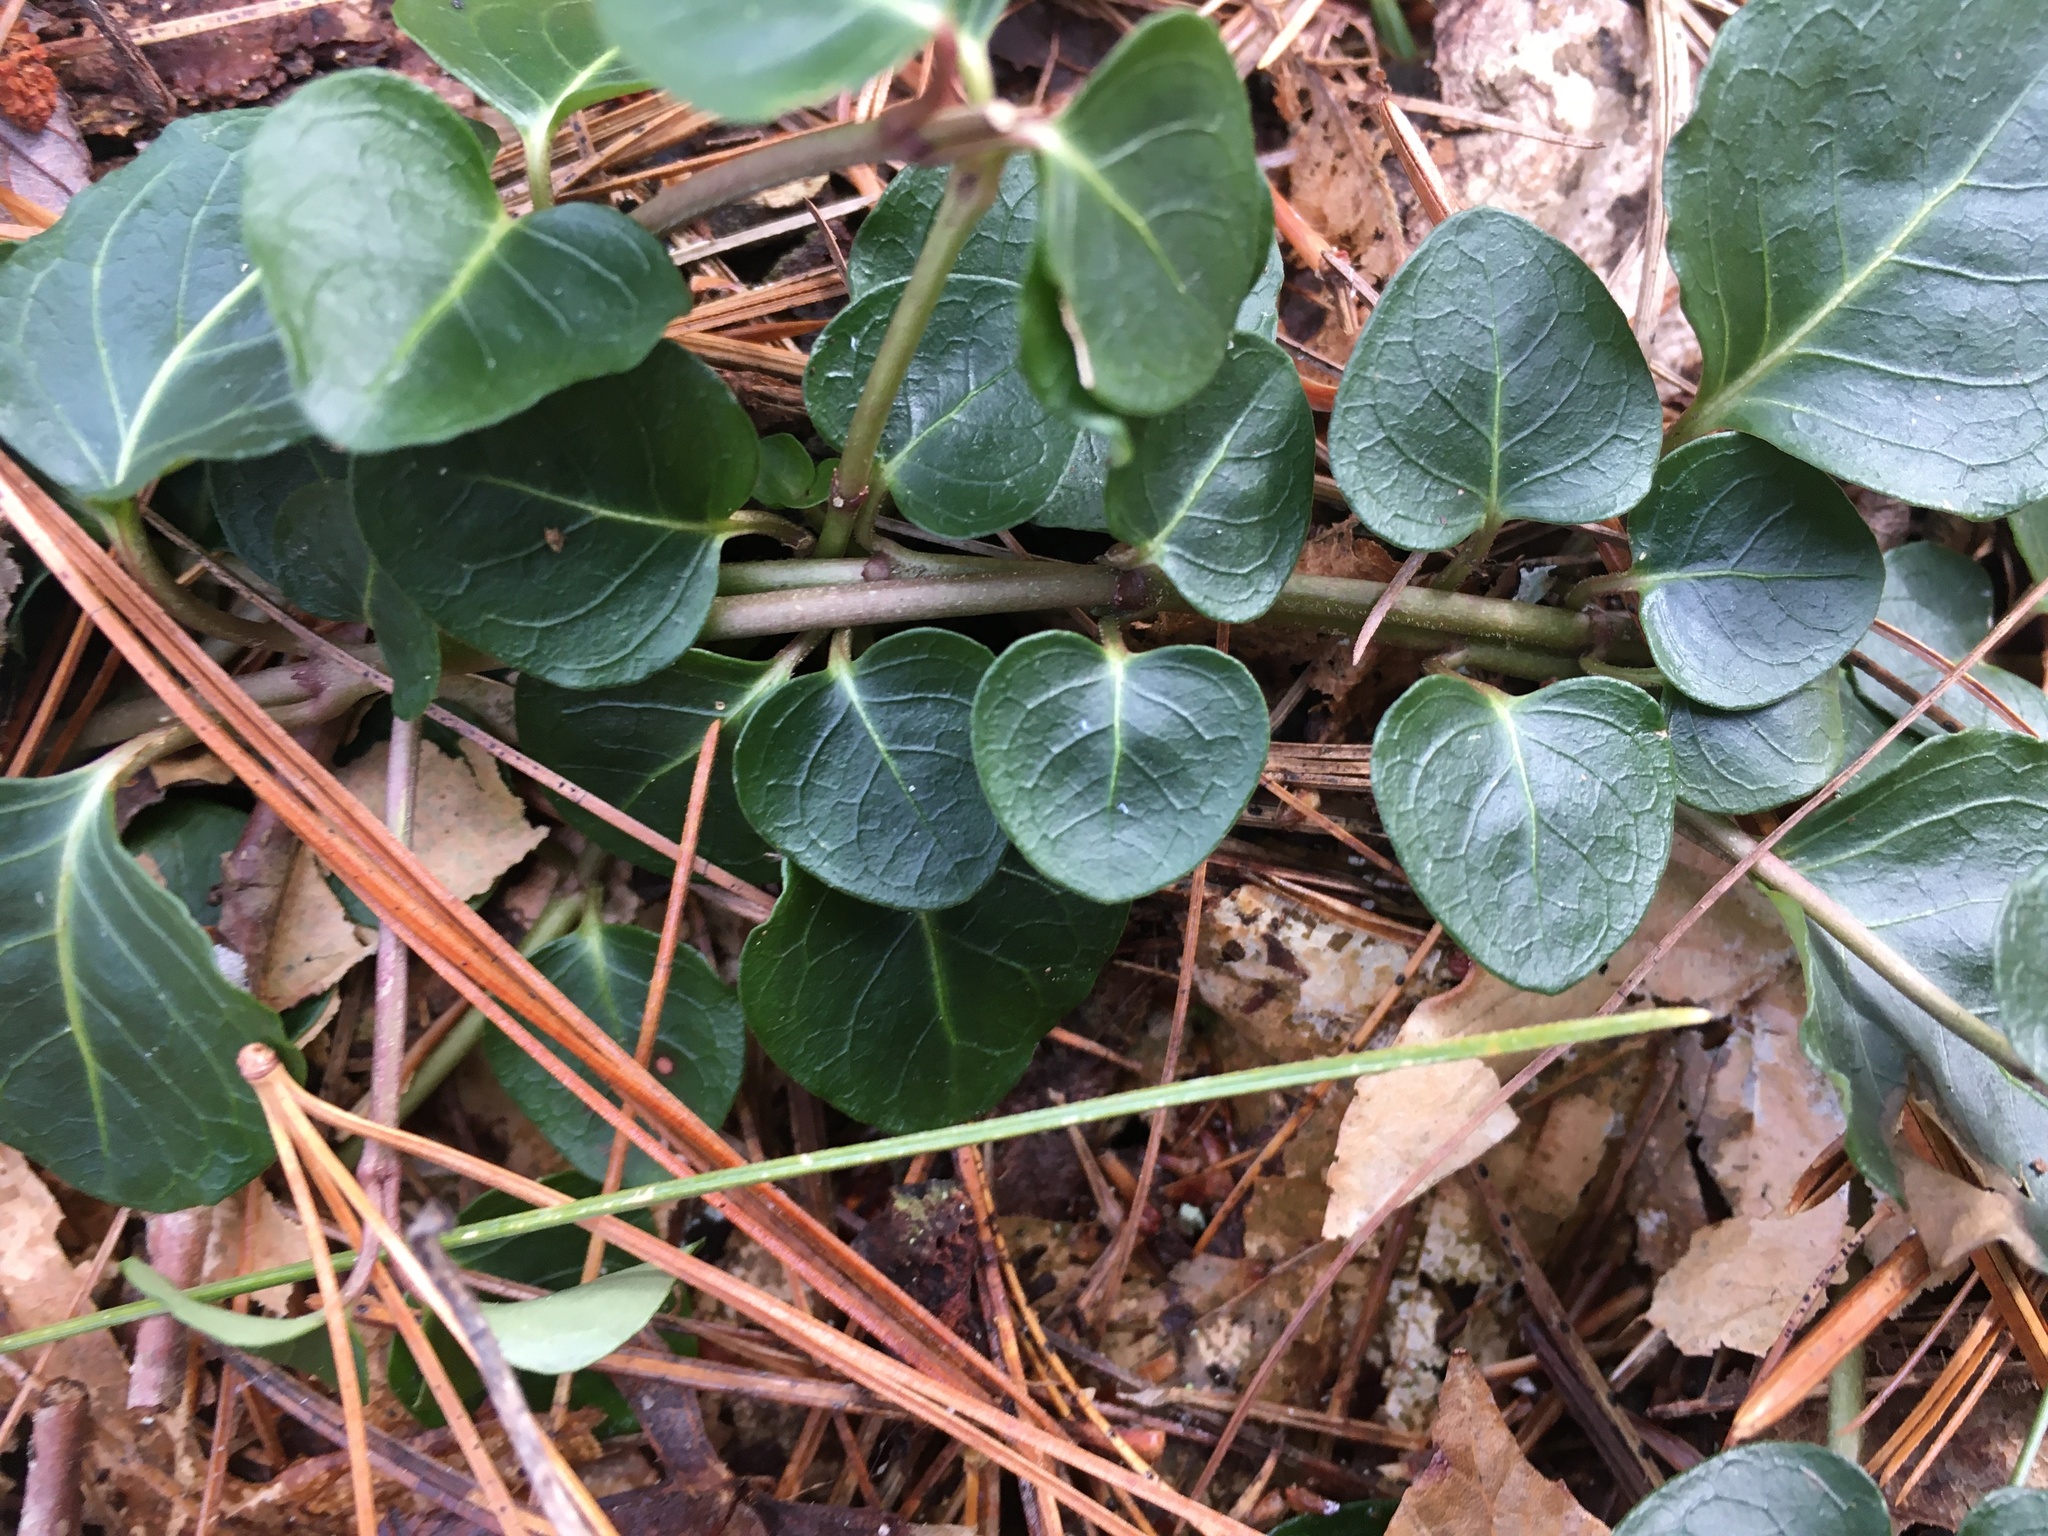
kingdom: Plantae
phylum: Tracheophyta
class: Magnoliopsida
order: Gentianales
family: Rubiaceae
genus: Mitchella
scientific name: Mitchella repens
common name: Partridge-berry
